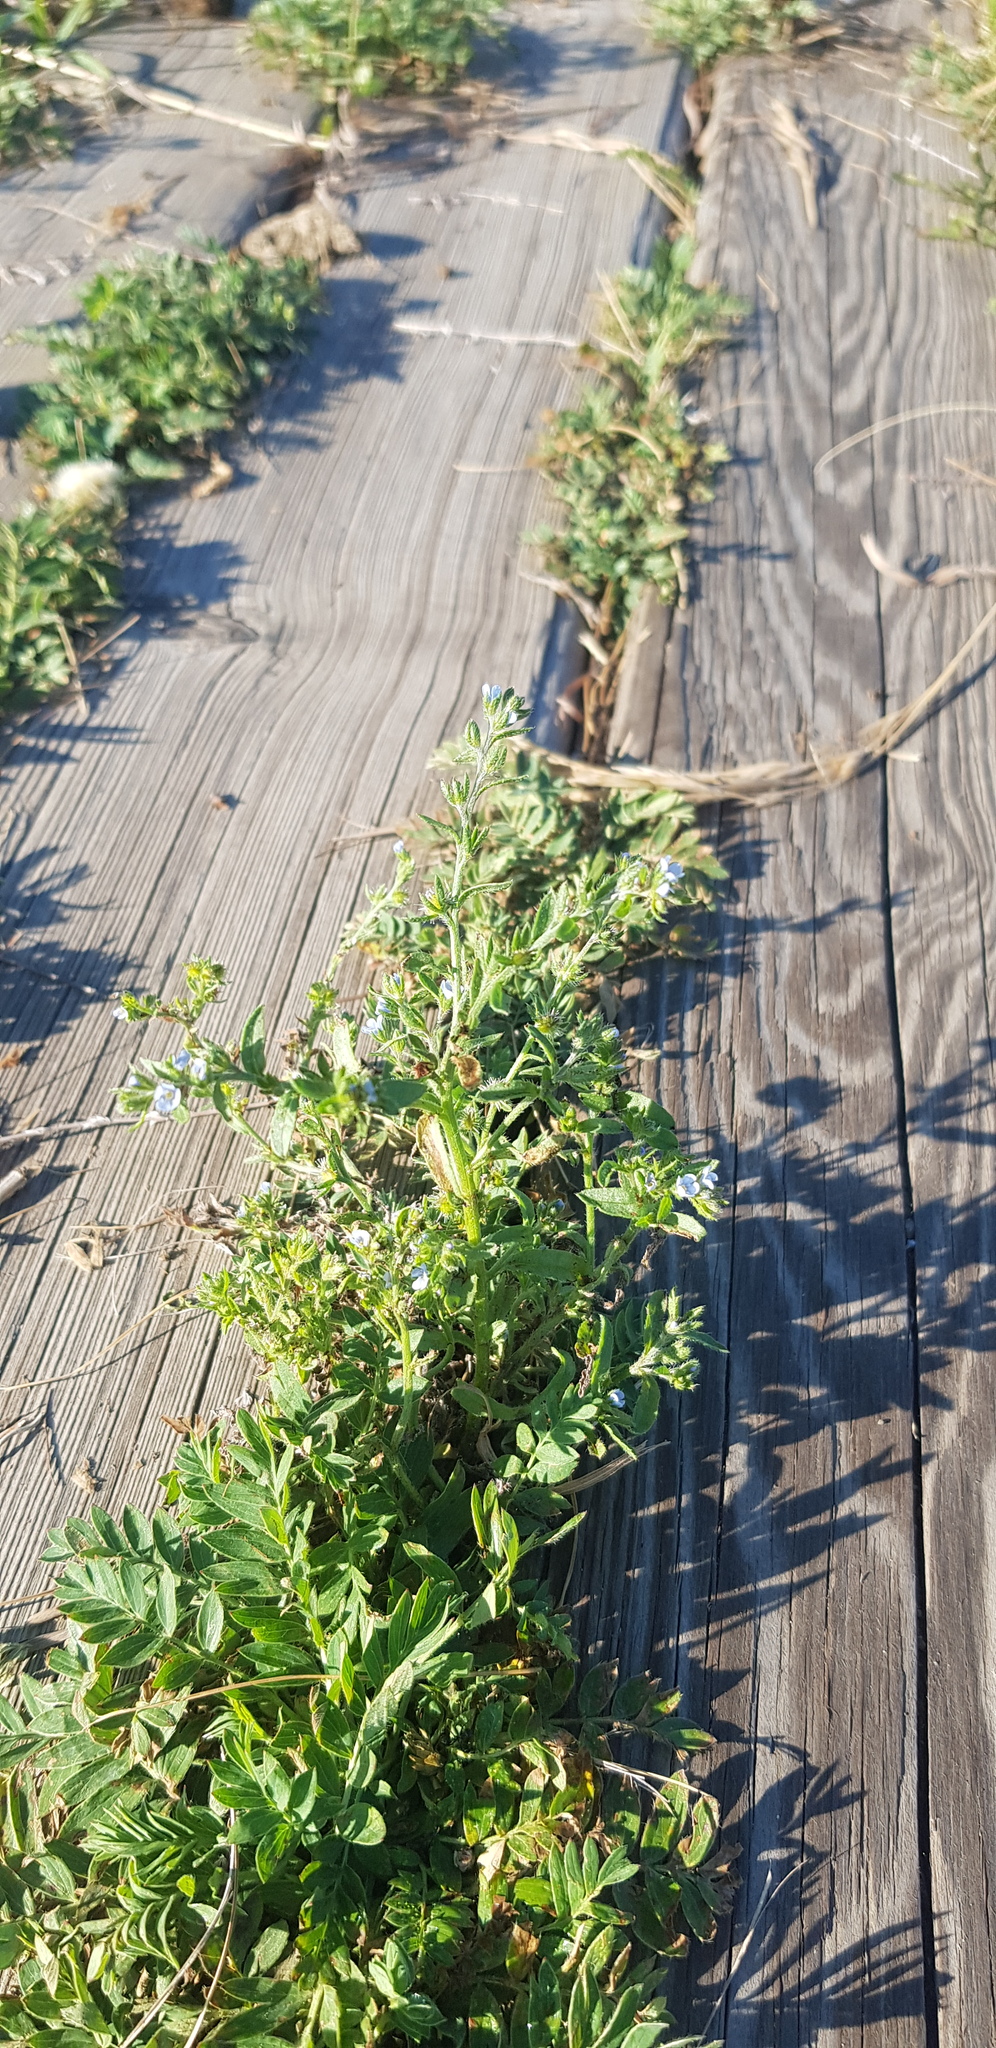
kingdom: Plantae
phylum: Tracheophyta
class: Magnoliopsida
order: Boraginales
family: Boraginaceae
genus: Lappula
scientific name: Lappula squarrosa
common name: European stickseed
